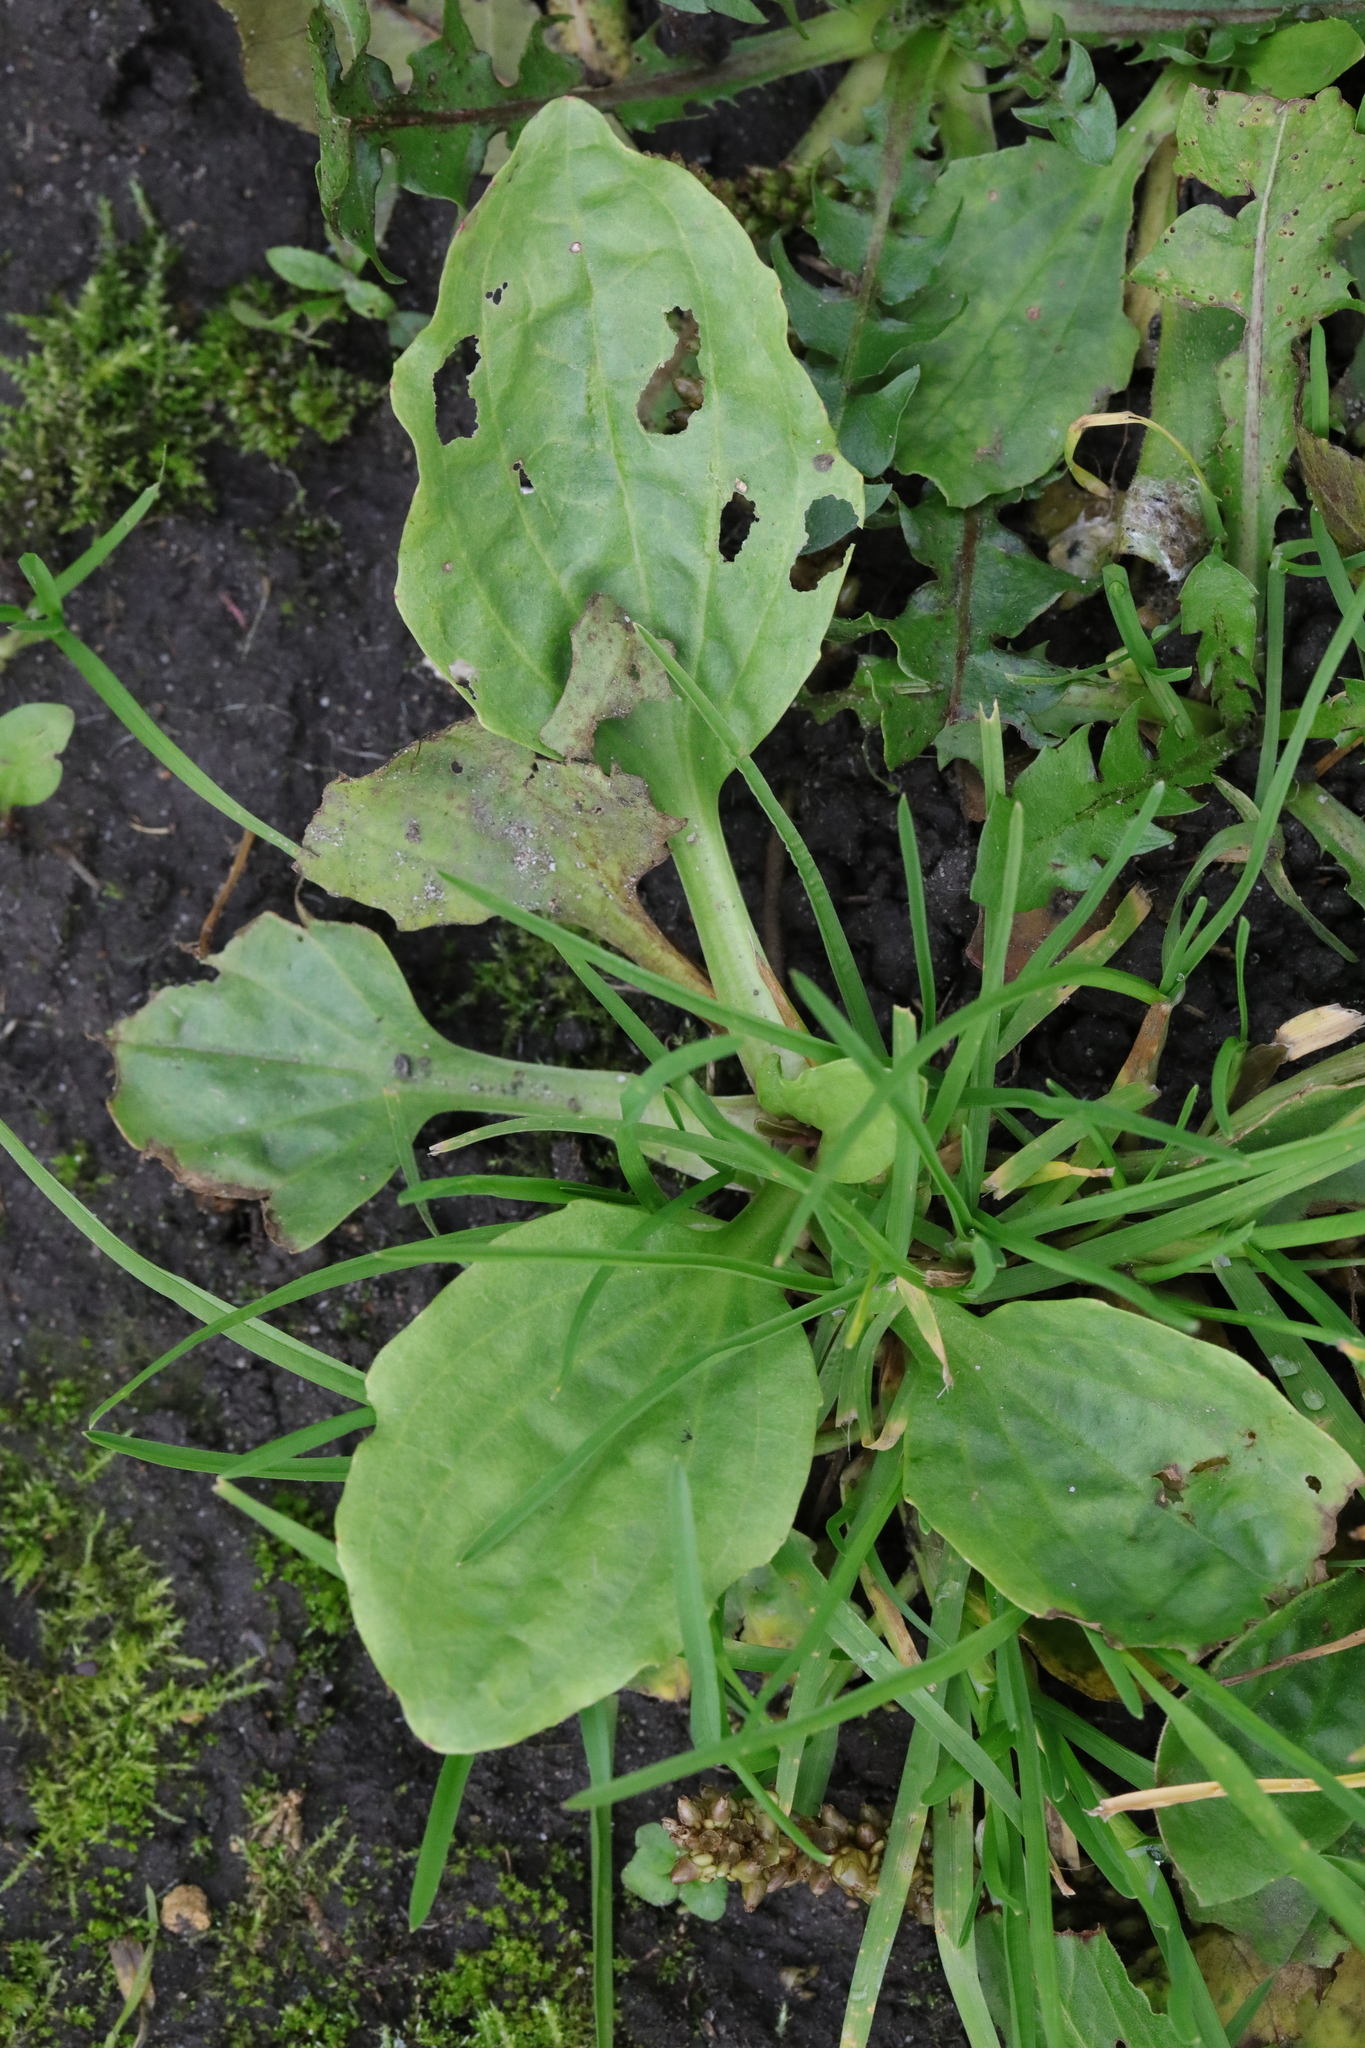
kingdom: Plantae
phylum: Tracheophyta
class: Magnoliopsida
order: Lamiales
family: Plantaginaceae
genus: Plantago
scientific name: Plantago major
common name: Common plantain
